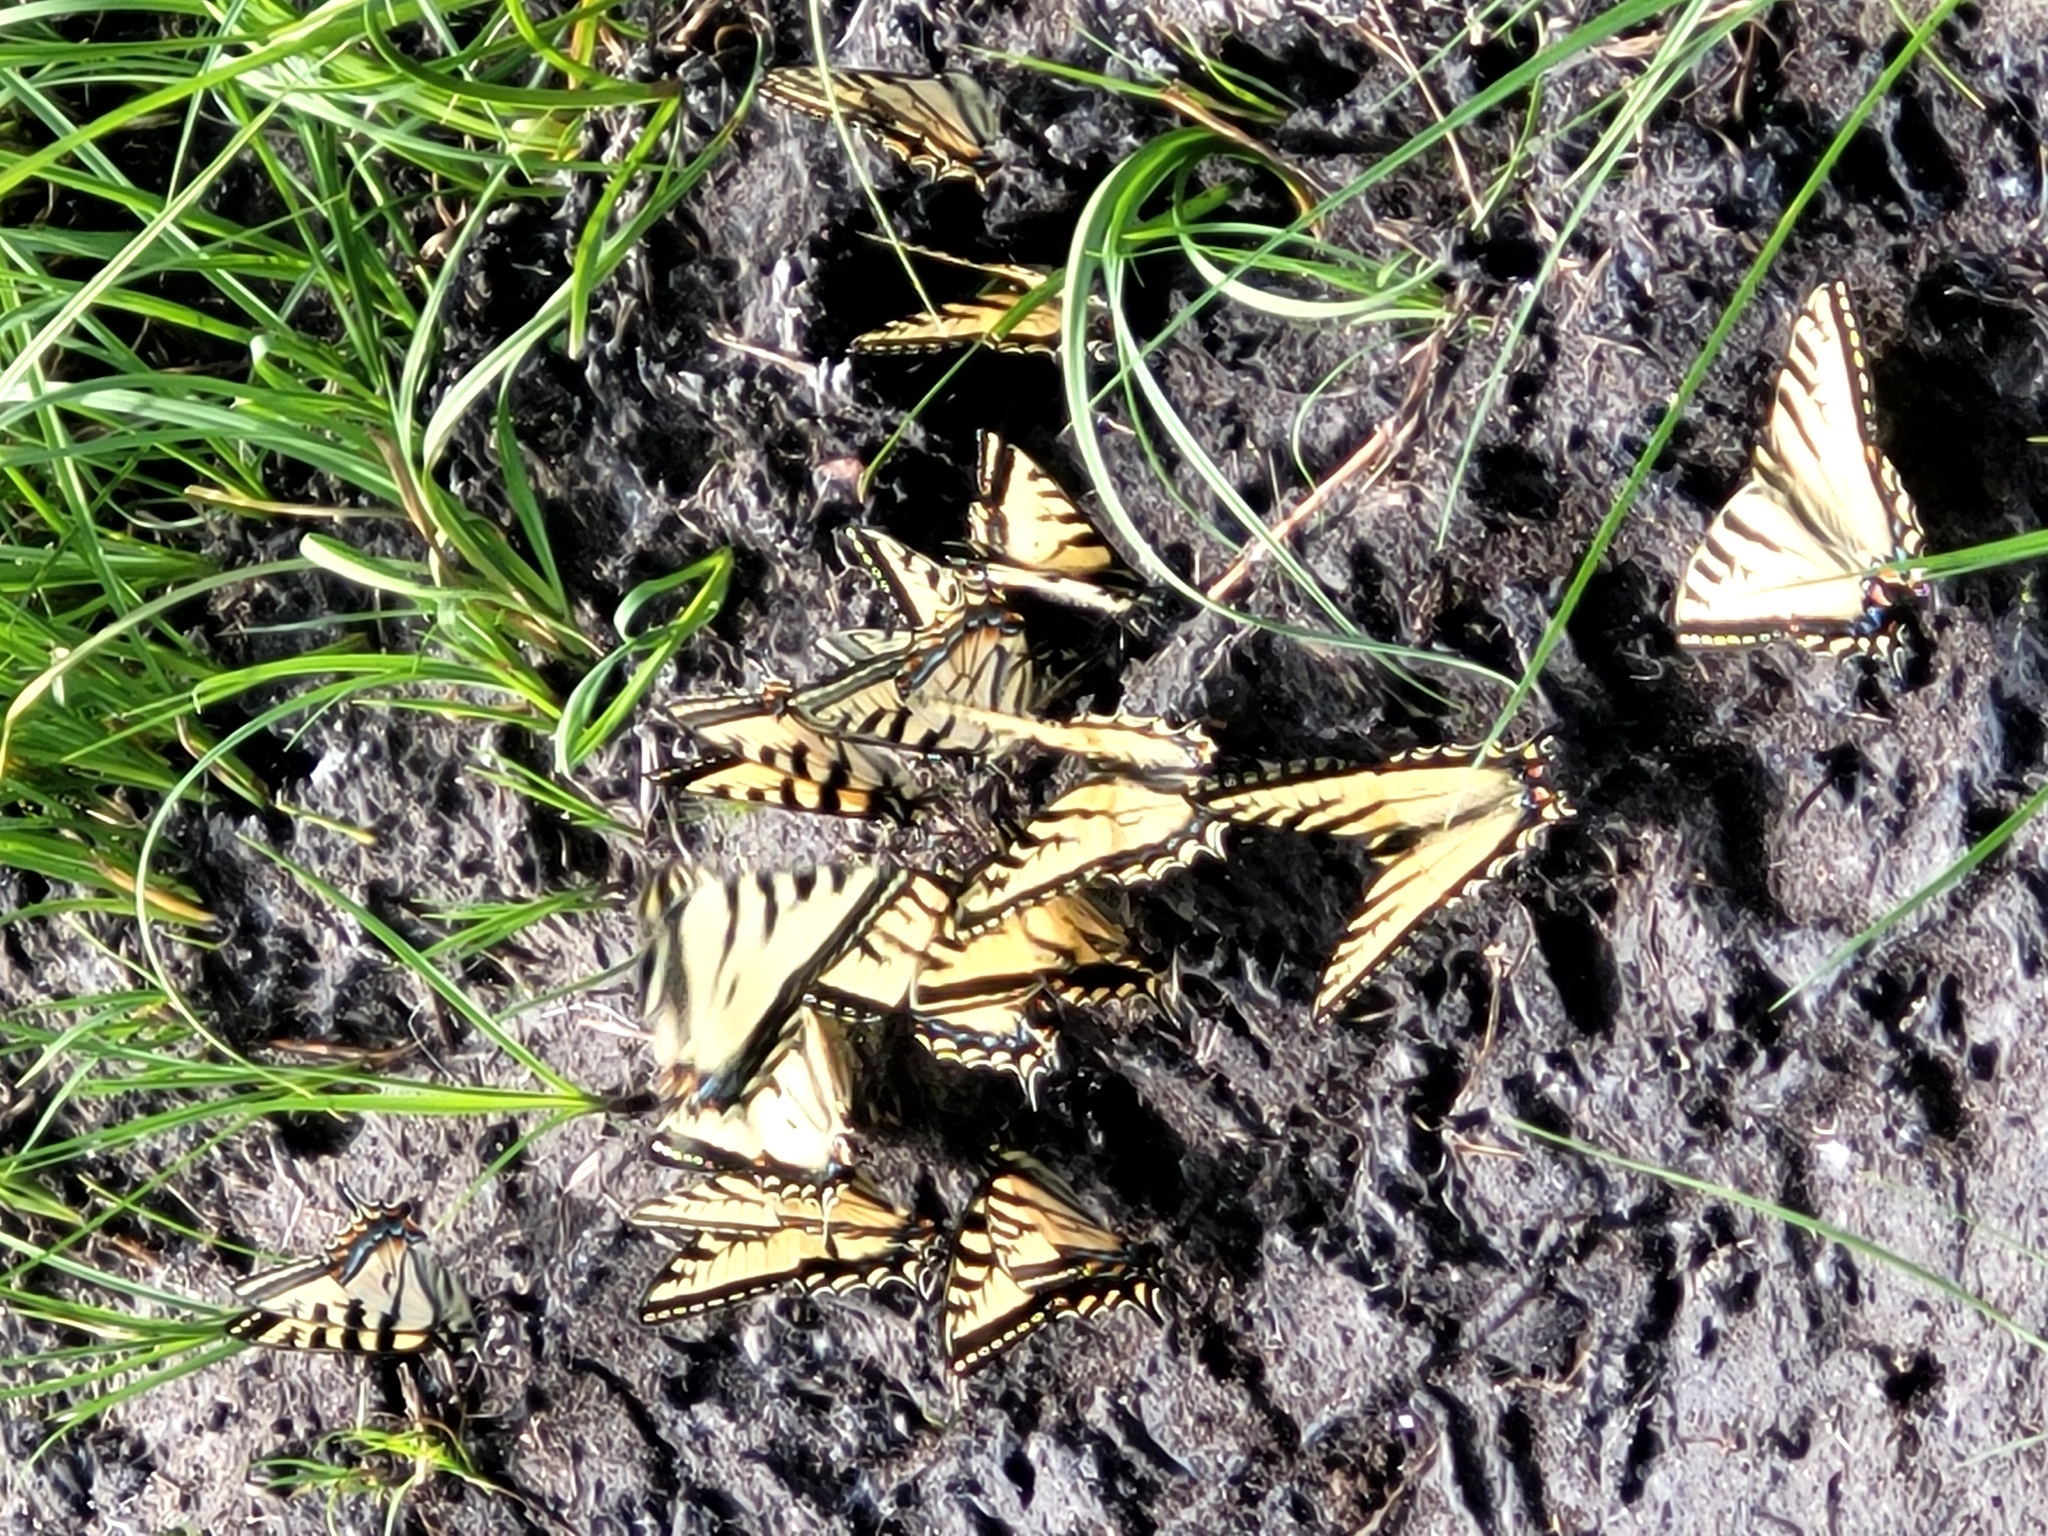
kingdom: Animalia
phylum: Arthropoda
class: Insecta
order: Lepidoptera
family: Papilionidae
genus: Papilio
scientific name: Papilio canadensis
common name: Canadian tiger swallowtail
